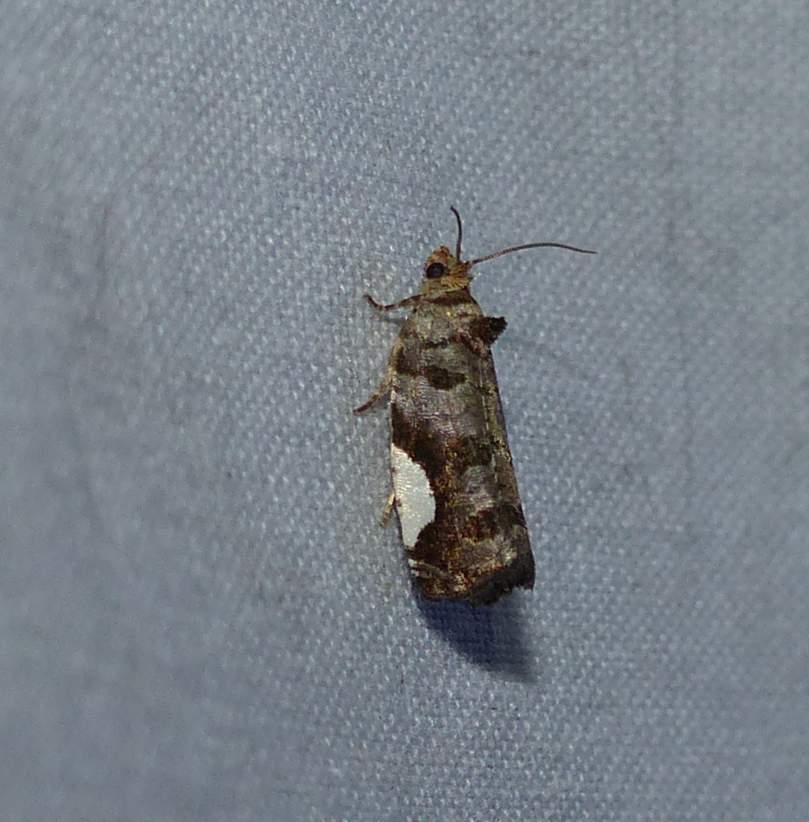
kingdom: Animalia
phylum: Arthropoda
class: Insecta
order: Lepidoptera
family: Tortricidae
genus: Hedya
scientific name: Hedya chionosema
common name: White-spotted hedya moth
